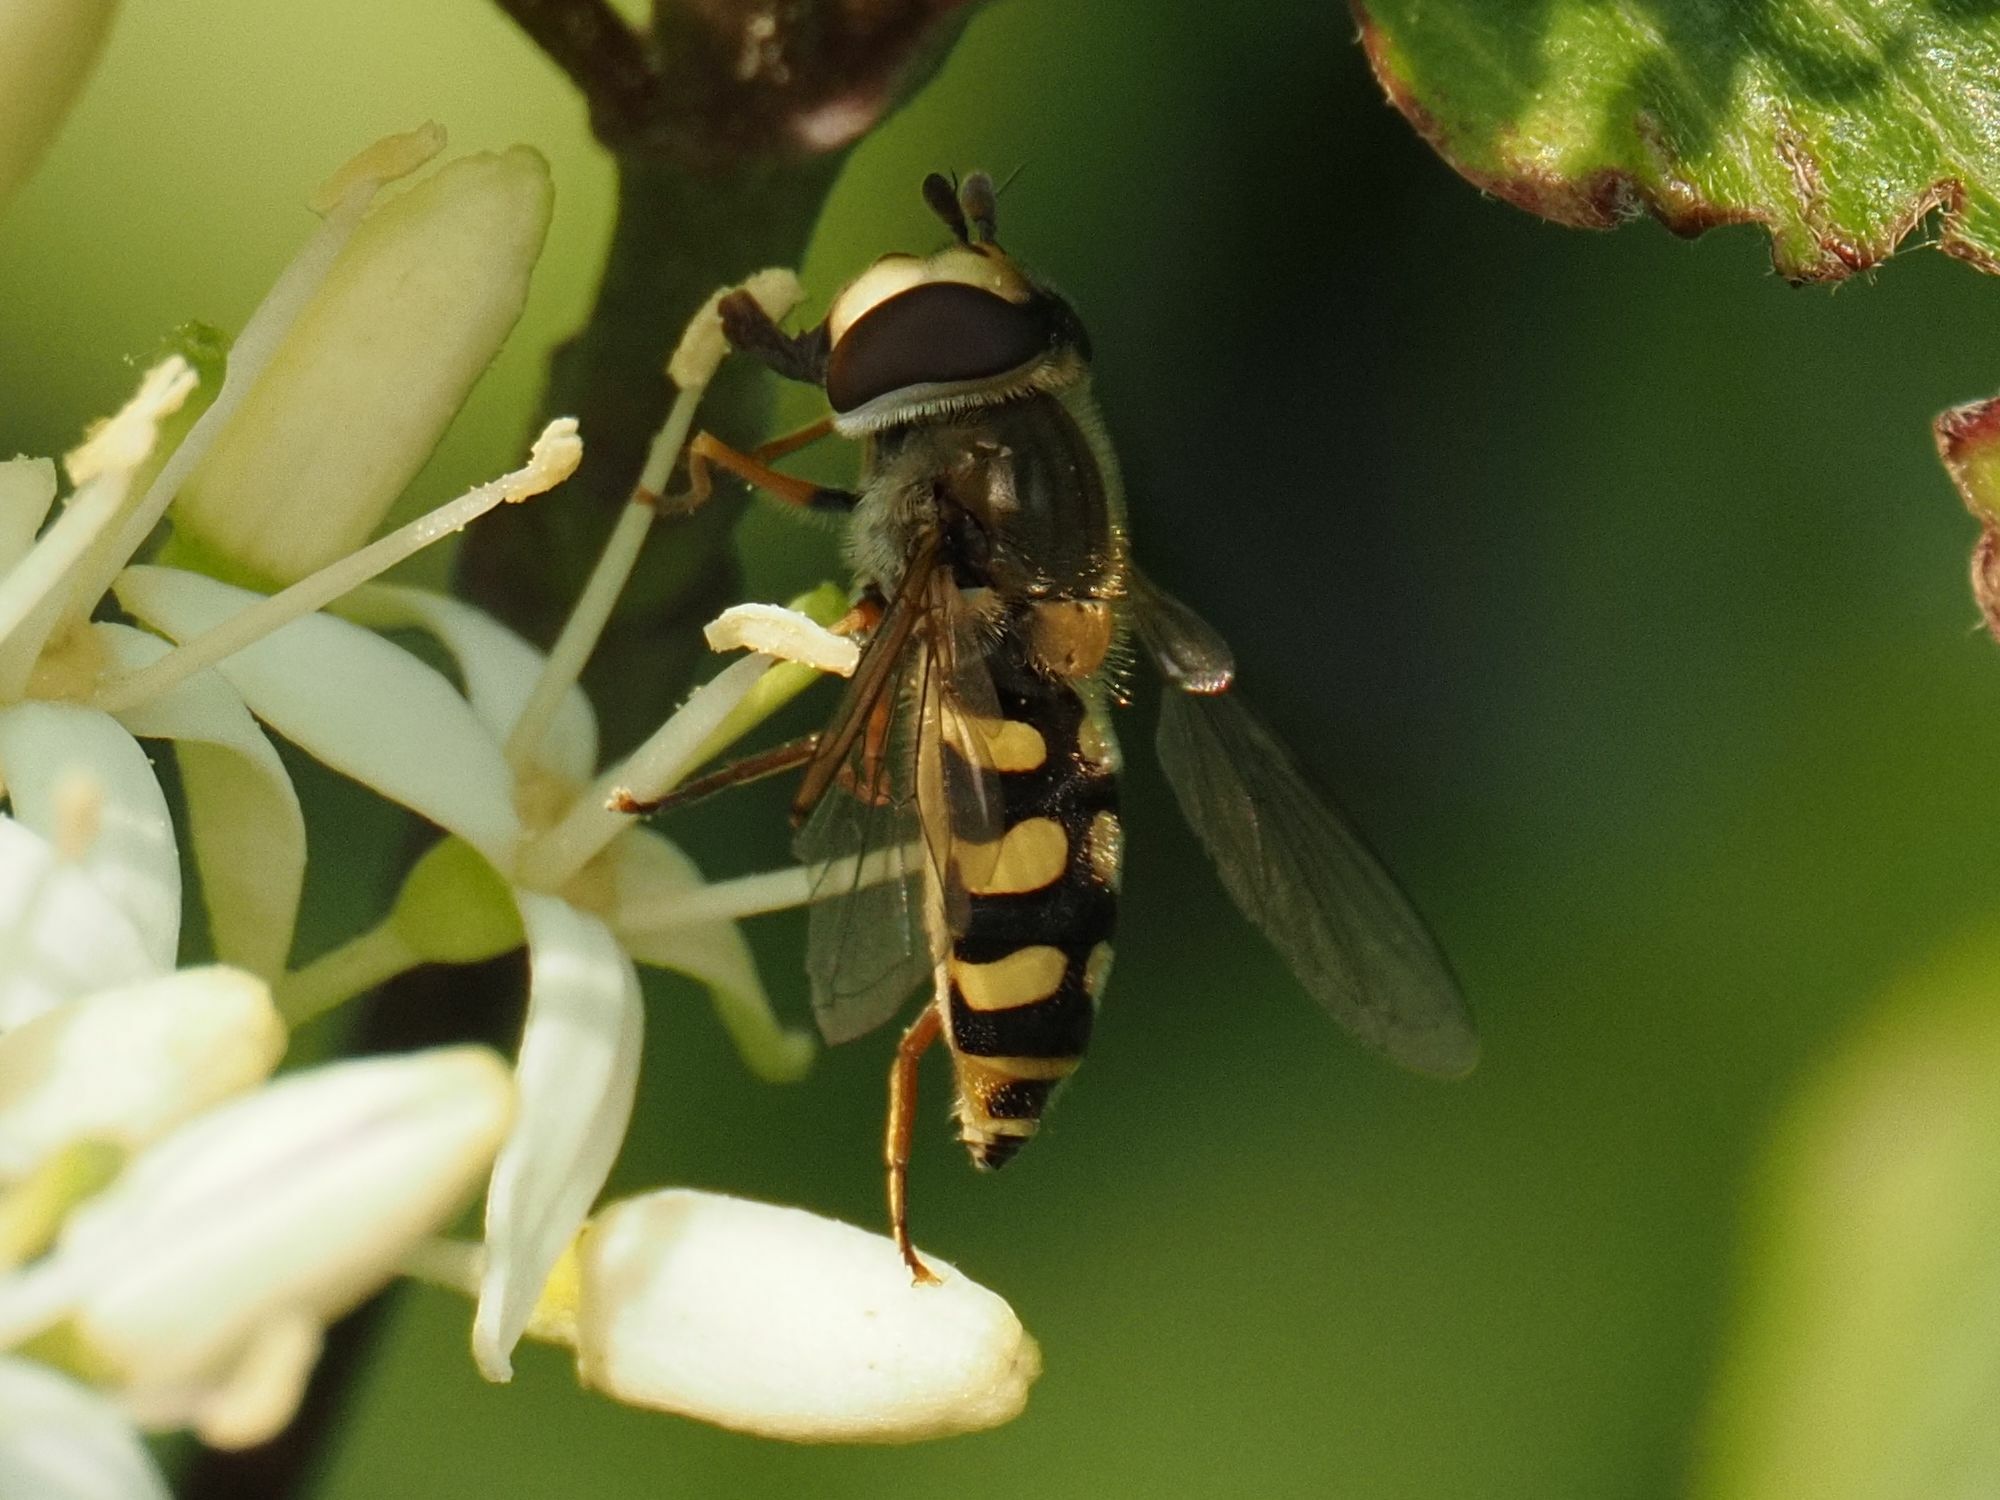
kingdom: Animalia
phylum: Arthropoda
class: Insecta
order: Diptera
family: Syrphidae
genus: Eupeodes
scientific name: Eupeodes corollae
